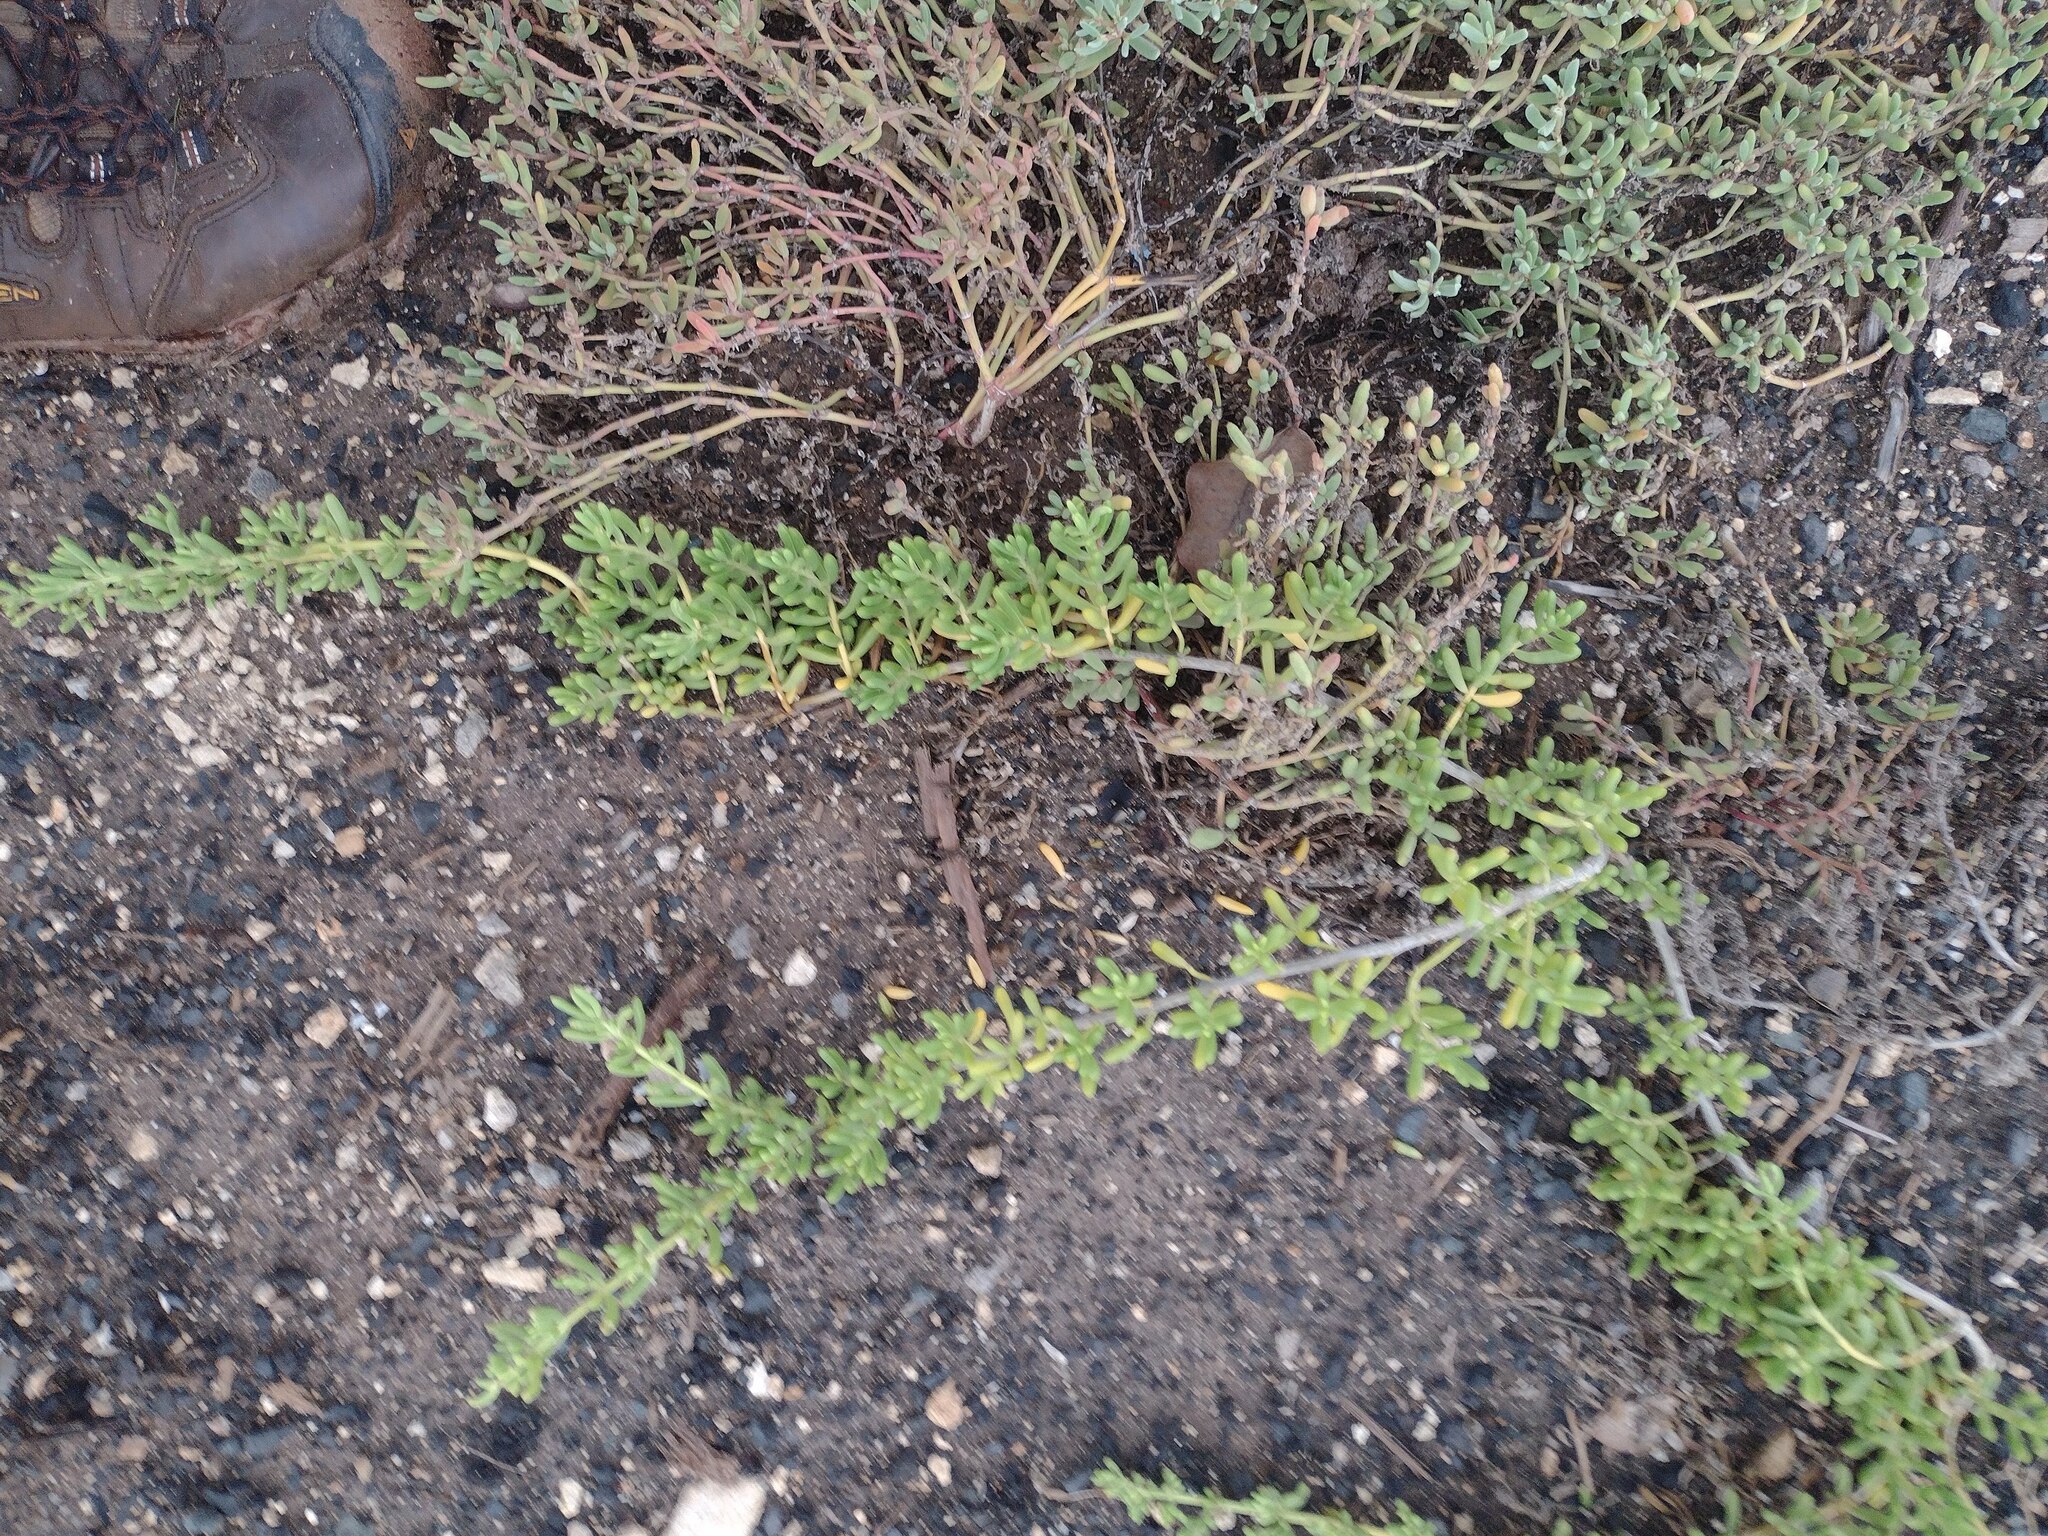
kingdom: Plantae
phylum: Tracheophyta
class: Magnoliopsida
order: Brassicales
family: Bataceae
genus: Batis
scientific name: Batis maritima
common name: Turtleweed
